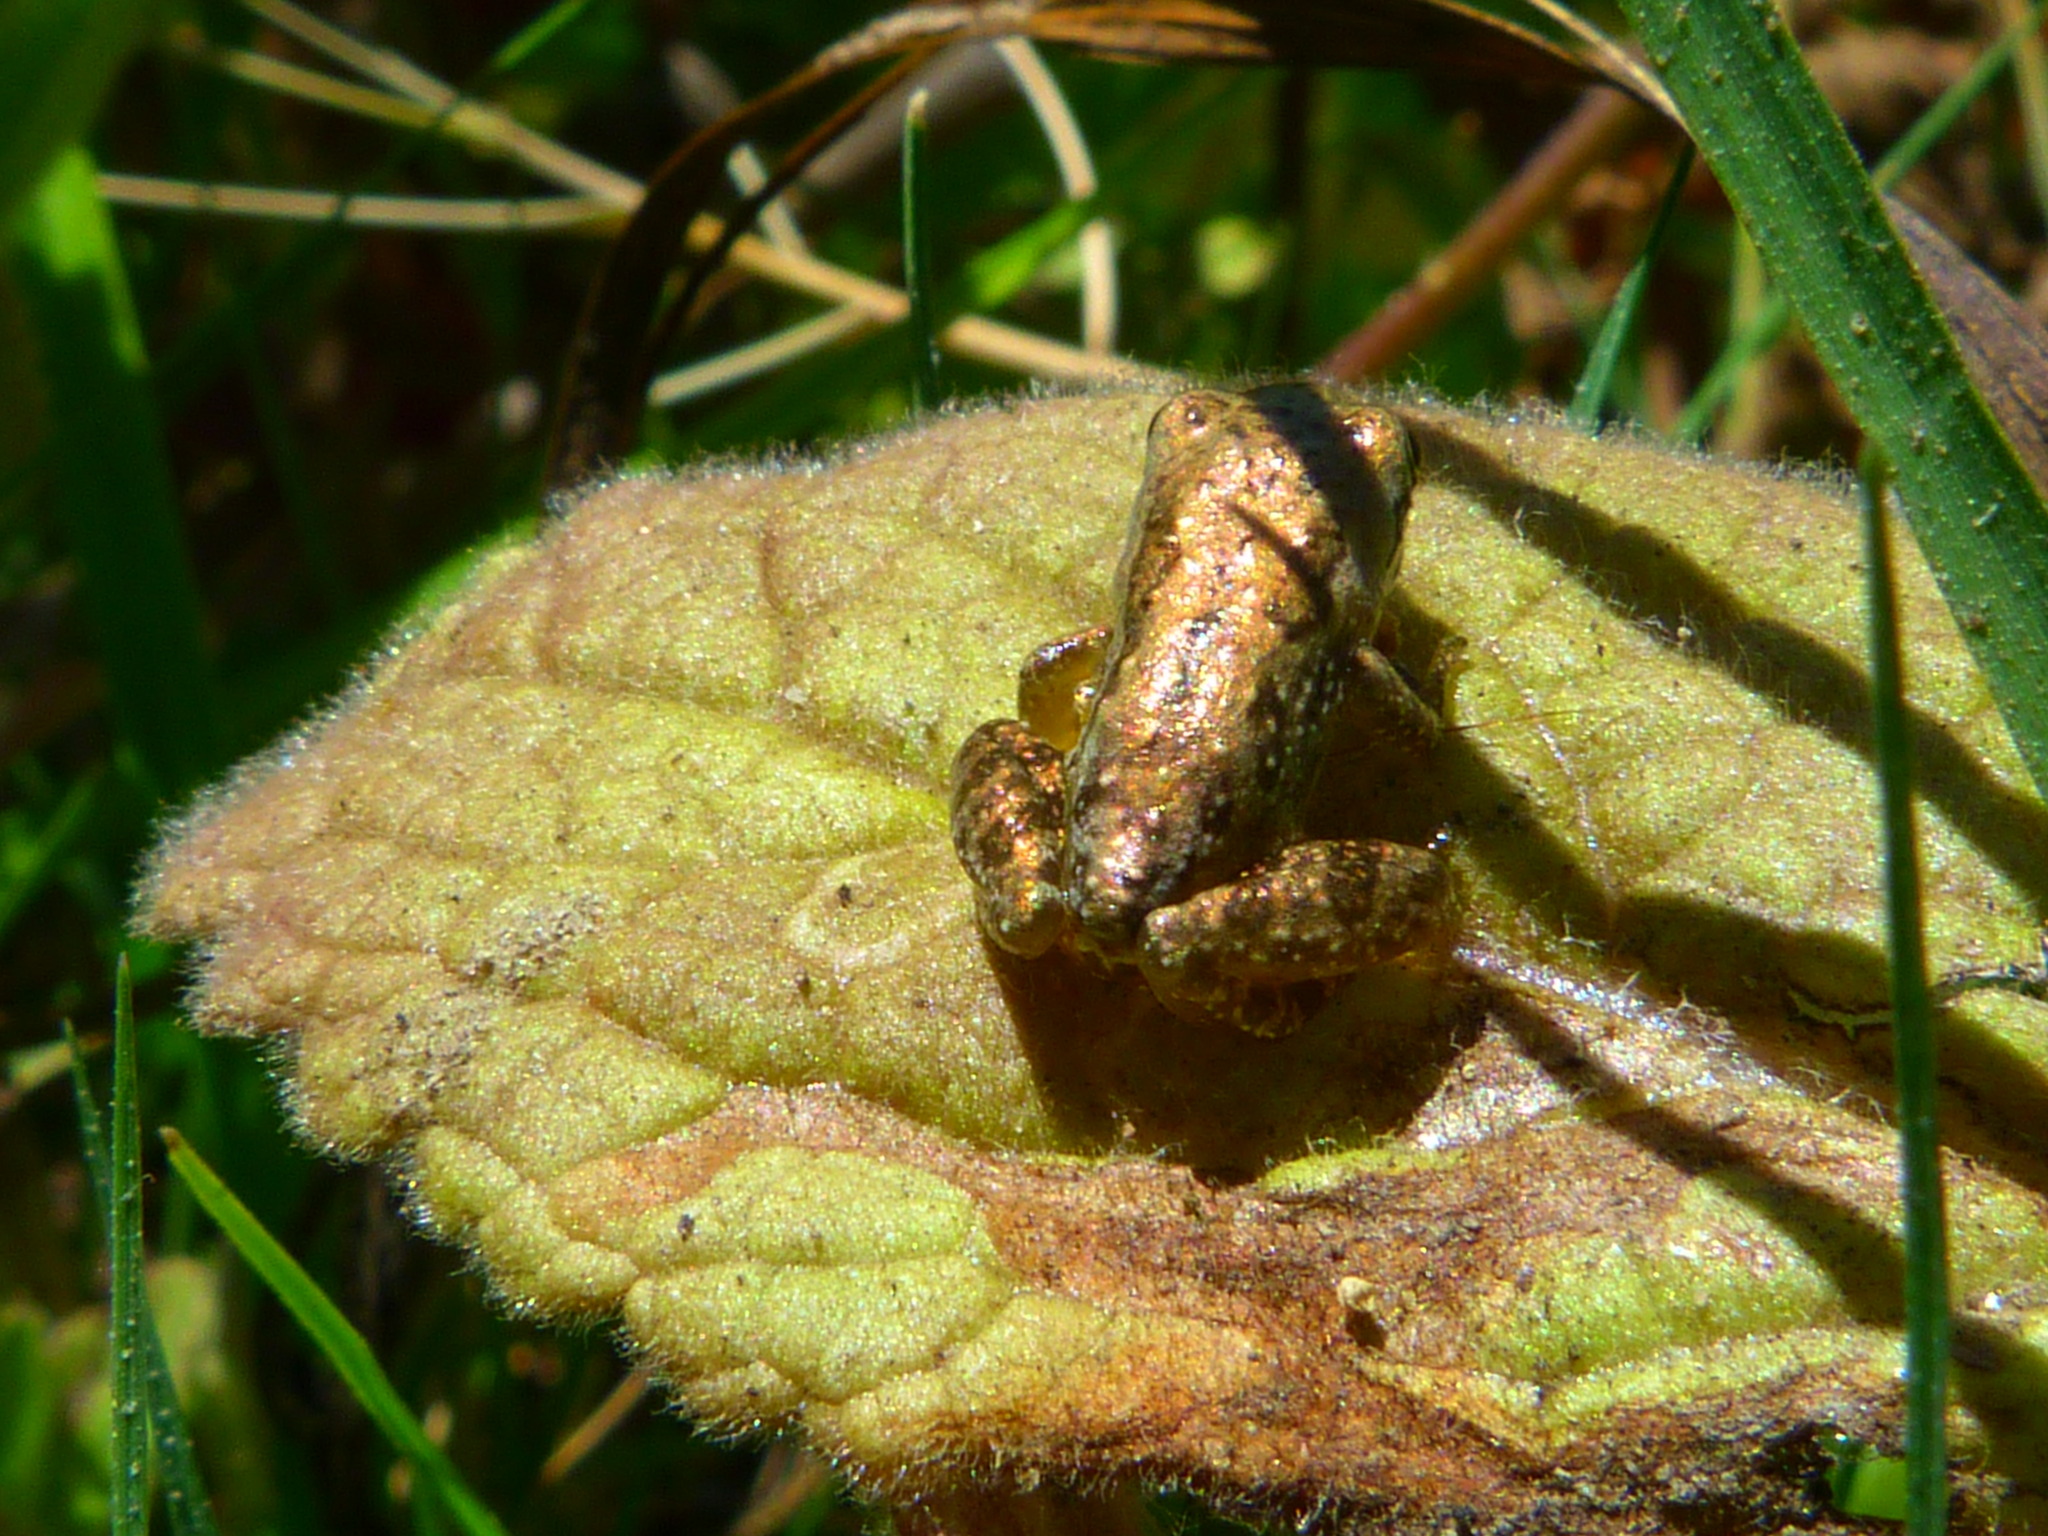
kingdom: Animalia
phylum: Chordata
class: Amphibia
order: Anura
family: Hylidae
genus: Pseudacris
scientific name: Pseudacris regilla
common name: Pacific chorus frog
